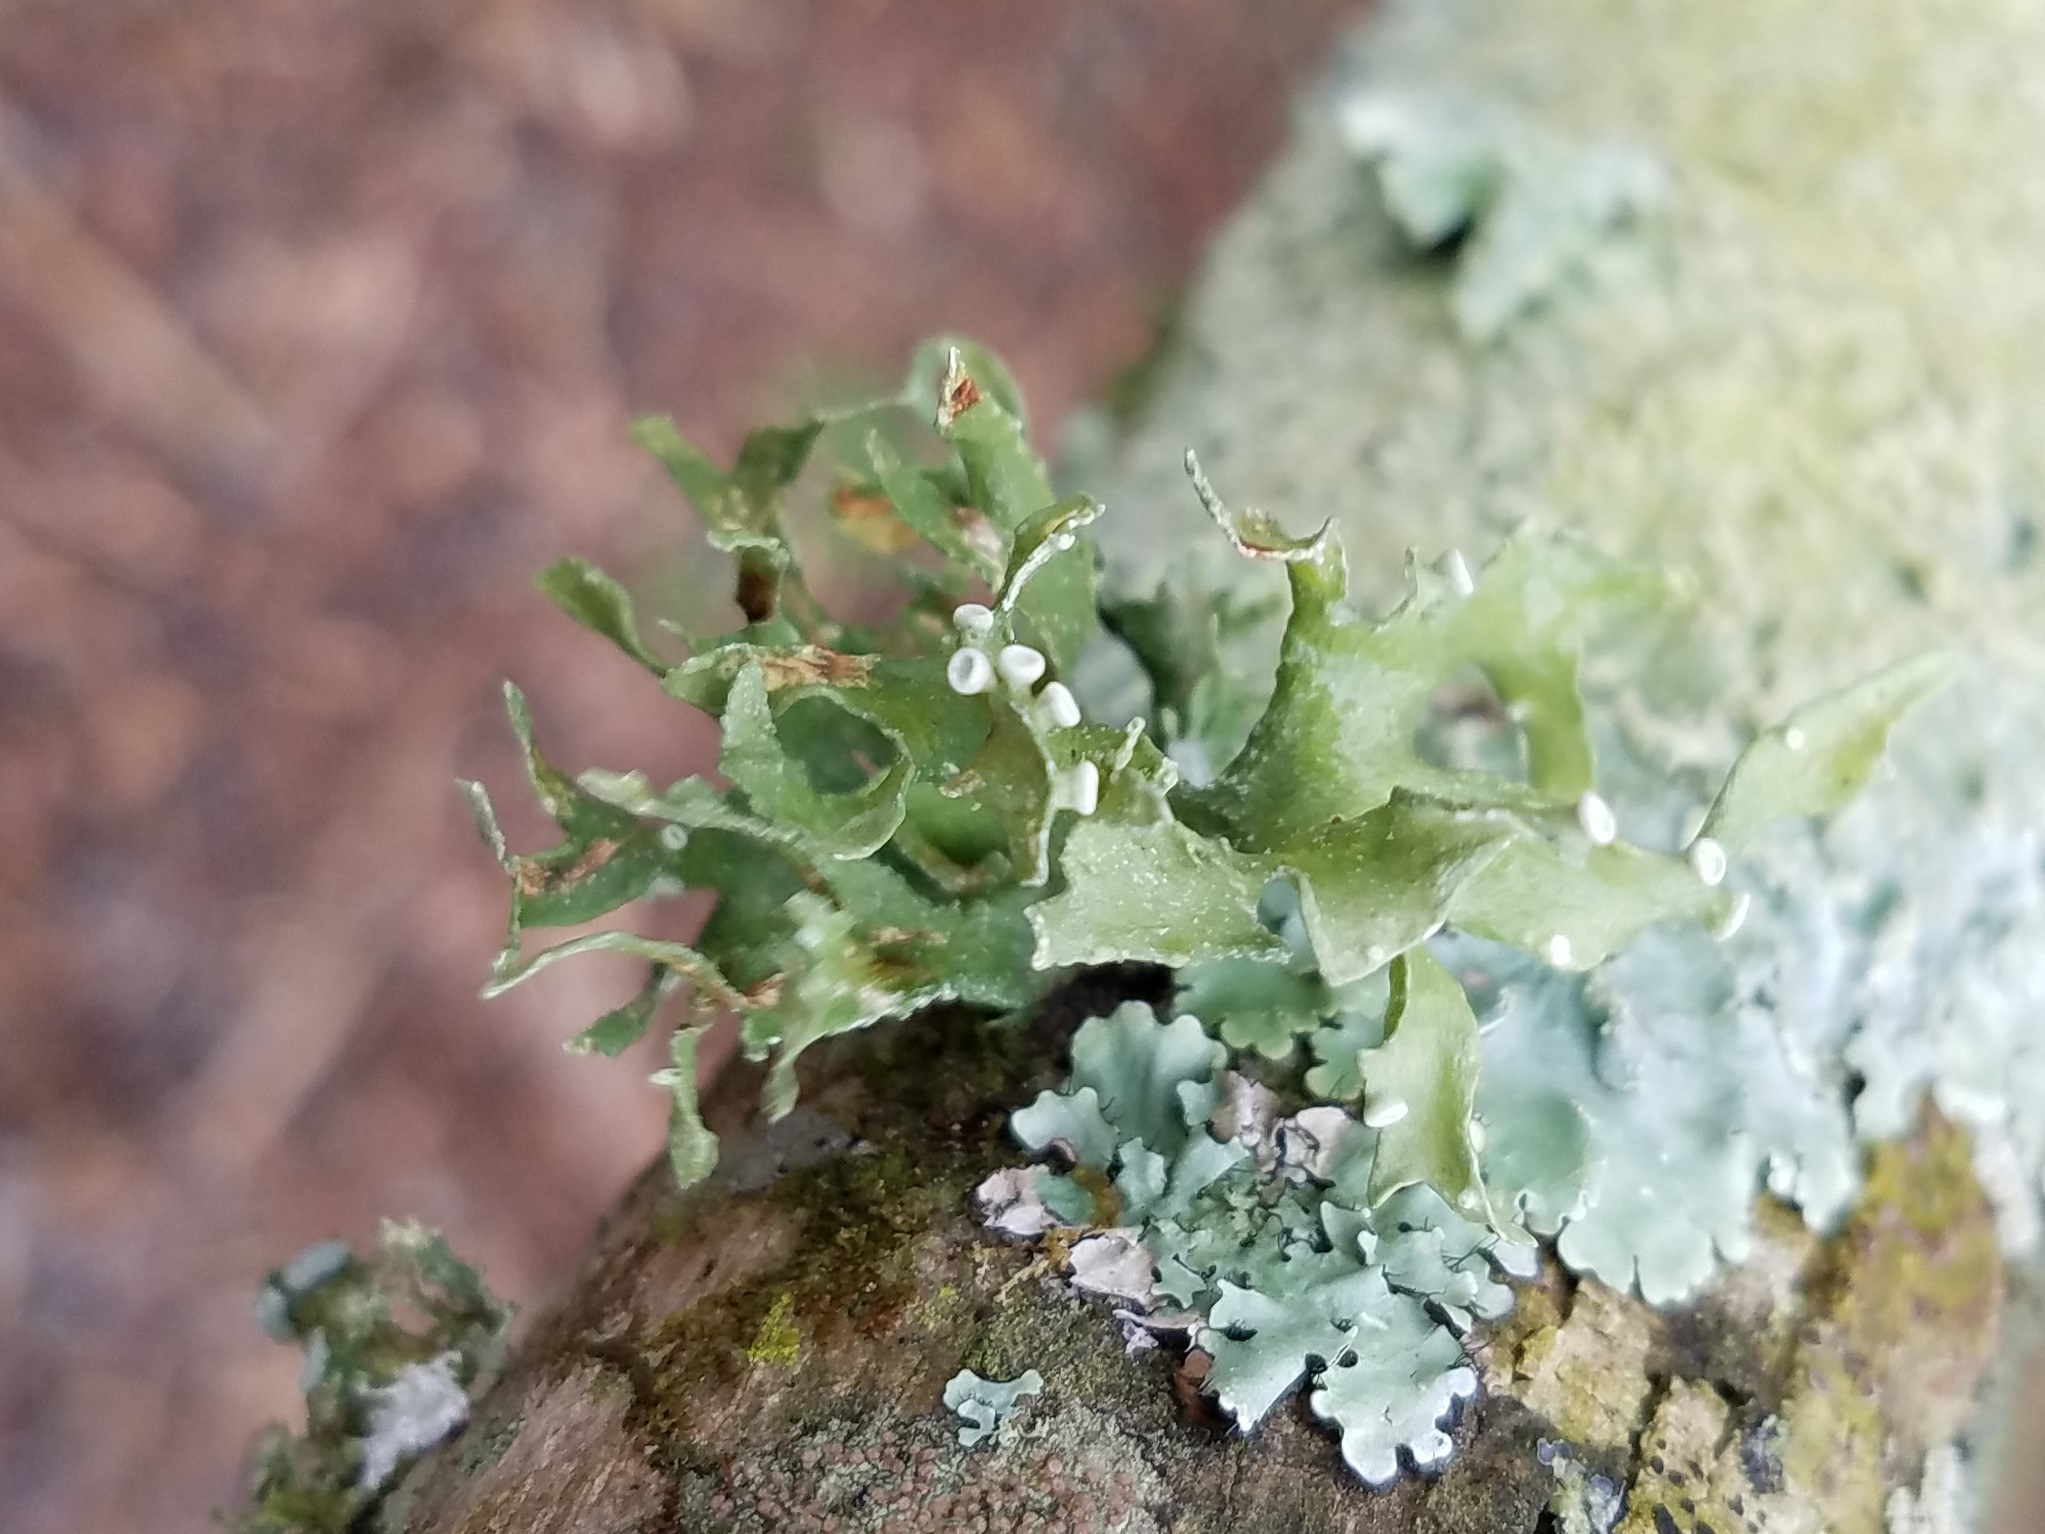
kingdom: Fungi
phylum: Ascomycota
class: Lecanoromycetes
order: Lecanorales
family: Ramalinaceae
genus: Ramalina
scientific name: Ramalina complanata
